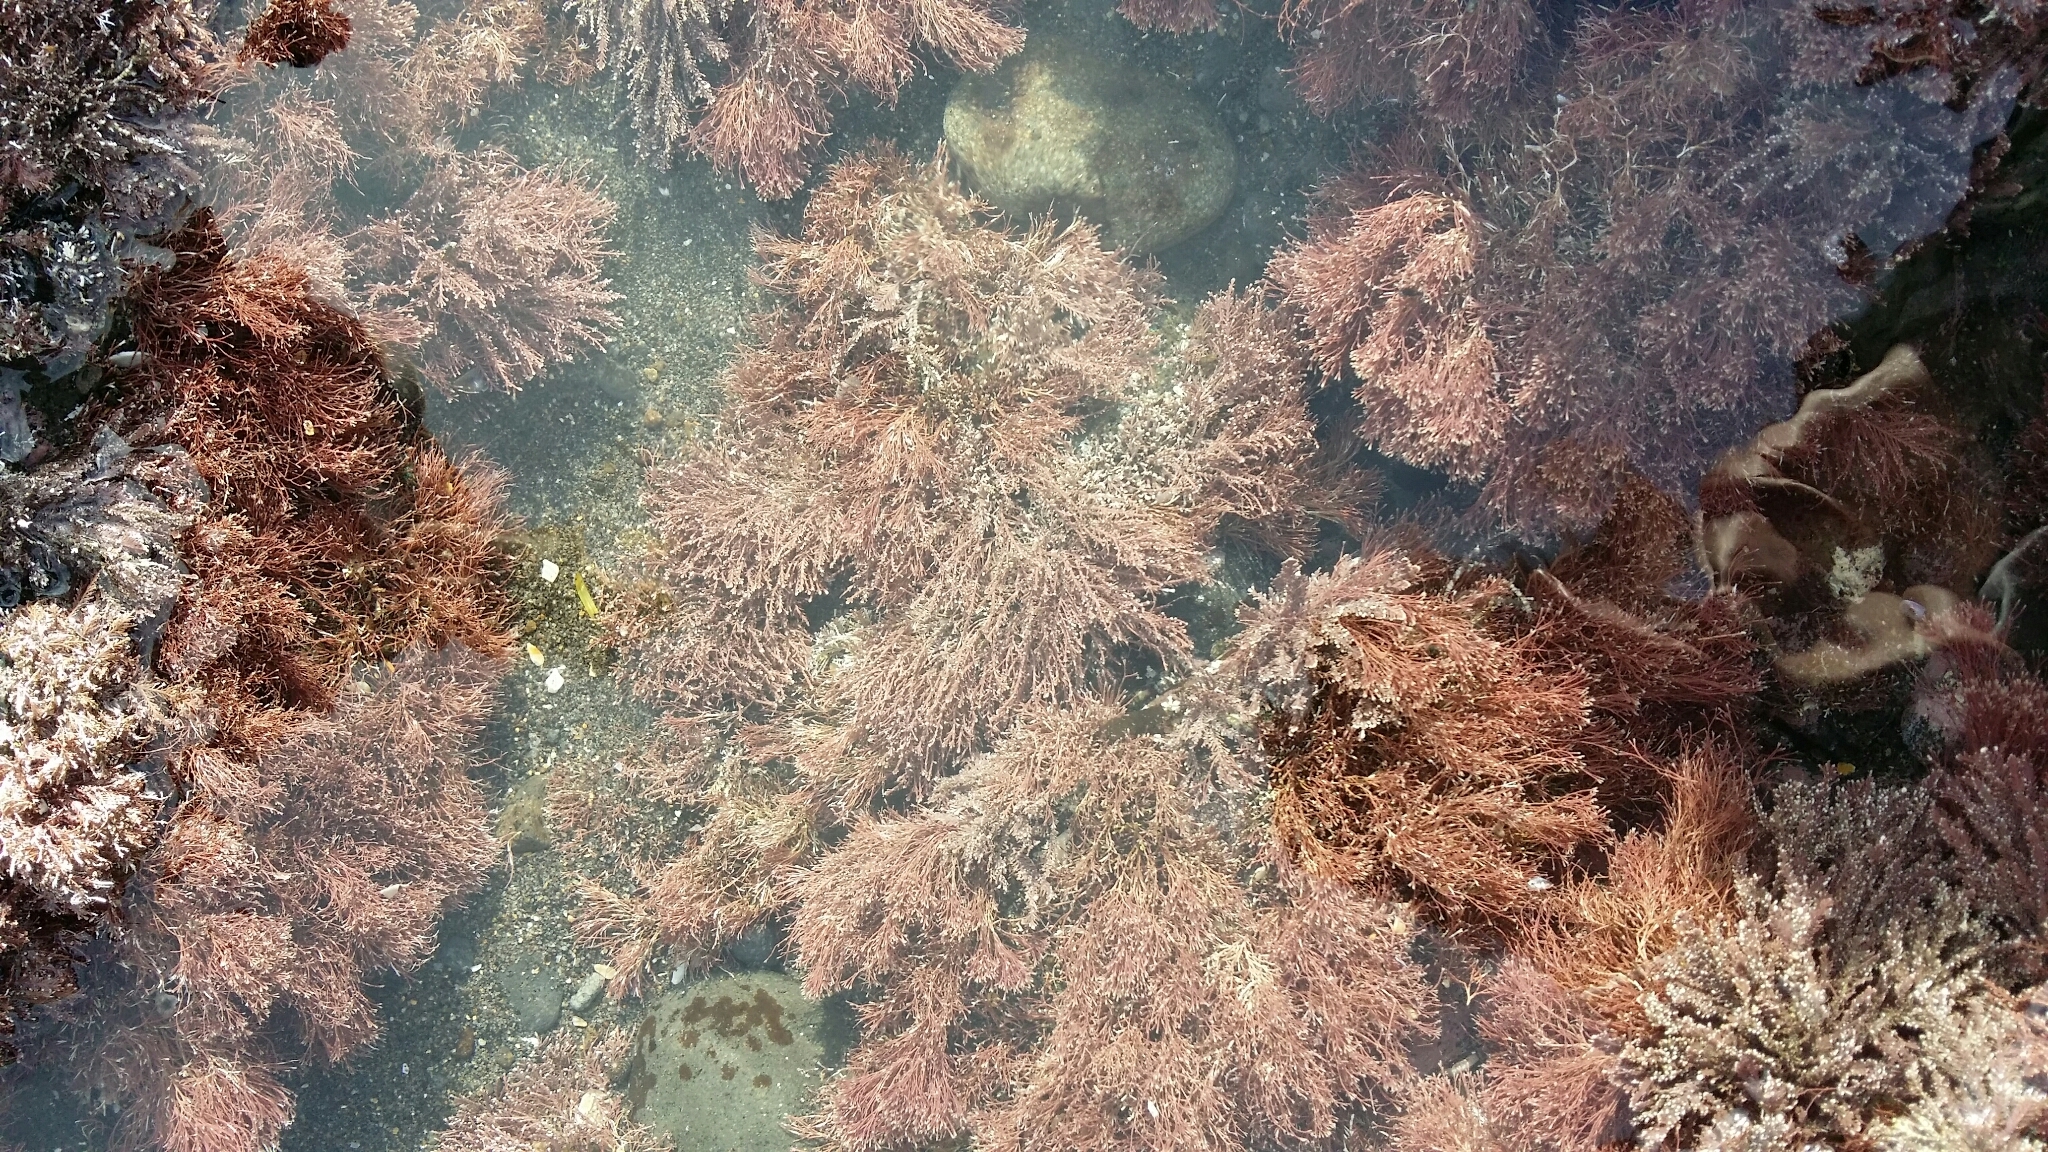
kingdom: Plantae
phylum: Rhodophyta
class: Florideophyceae
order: Corallinales
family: Corallinaceae
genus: Jania
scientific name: Jania
